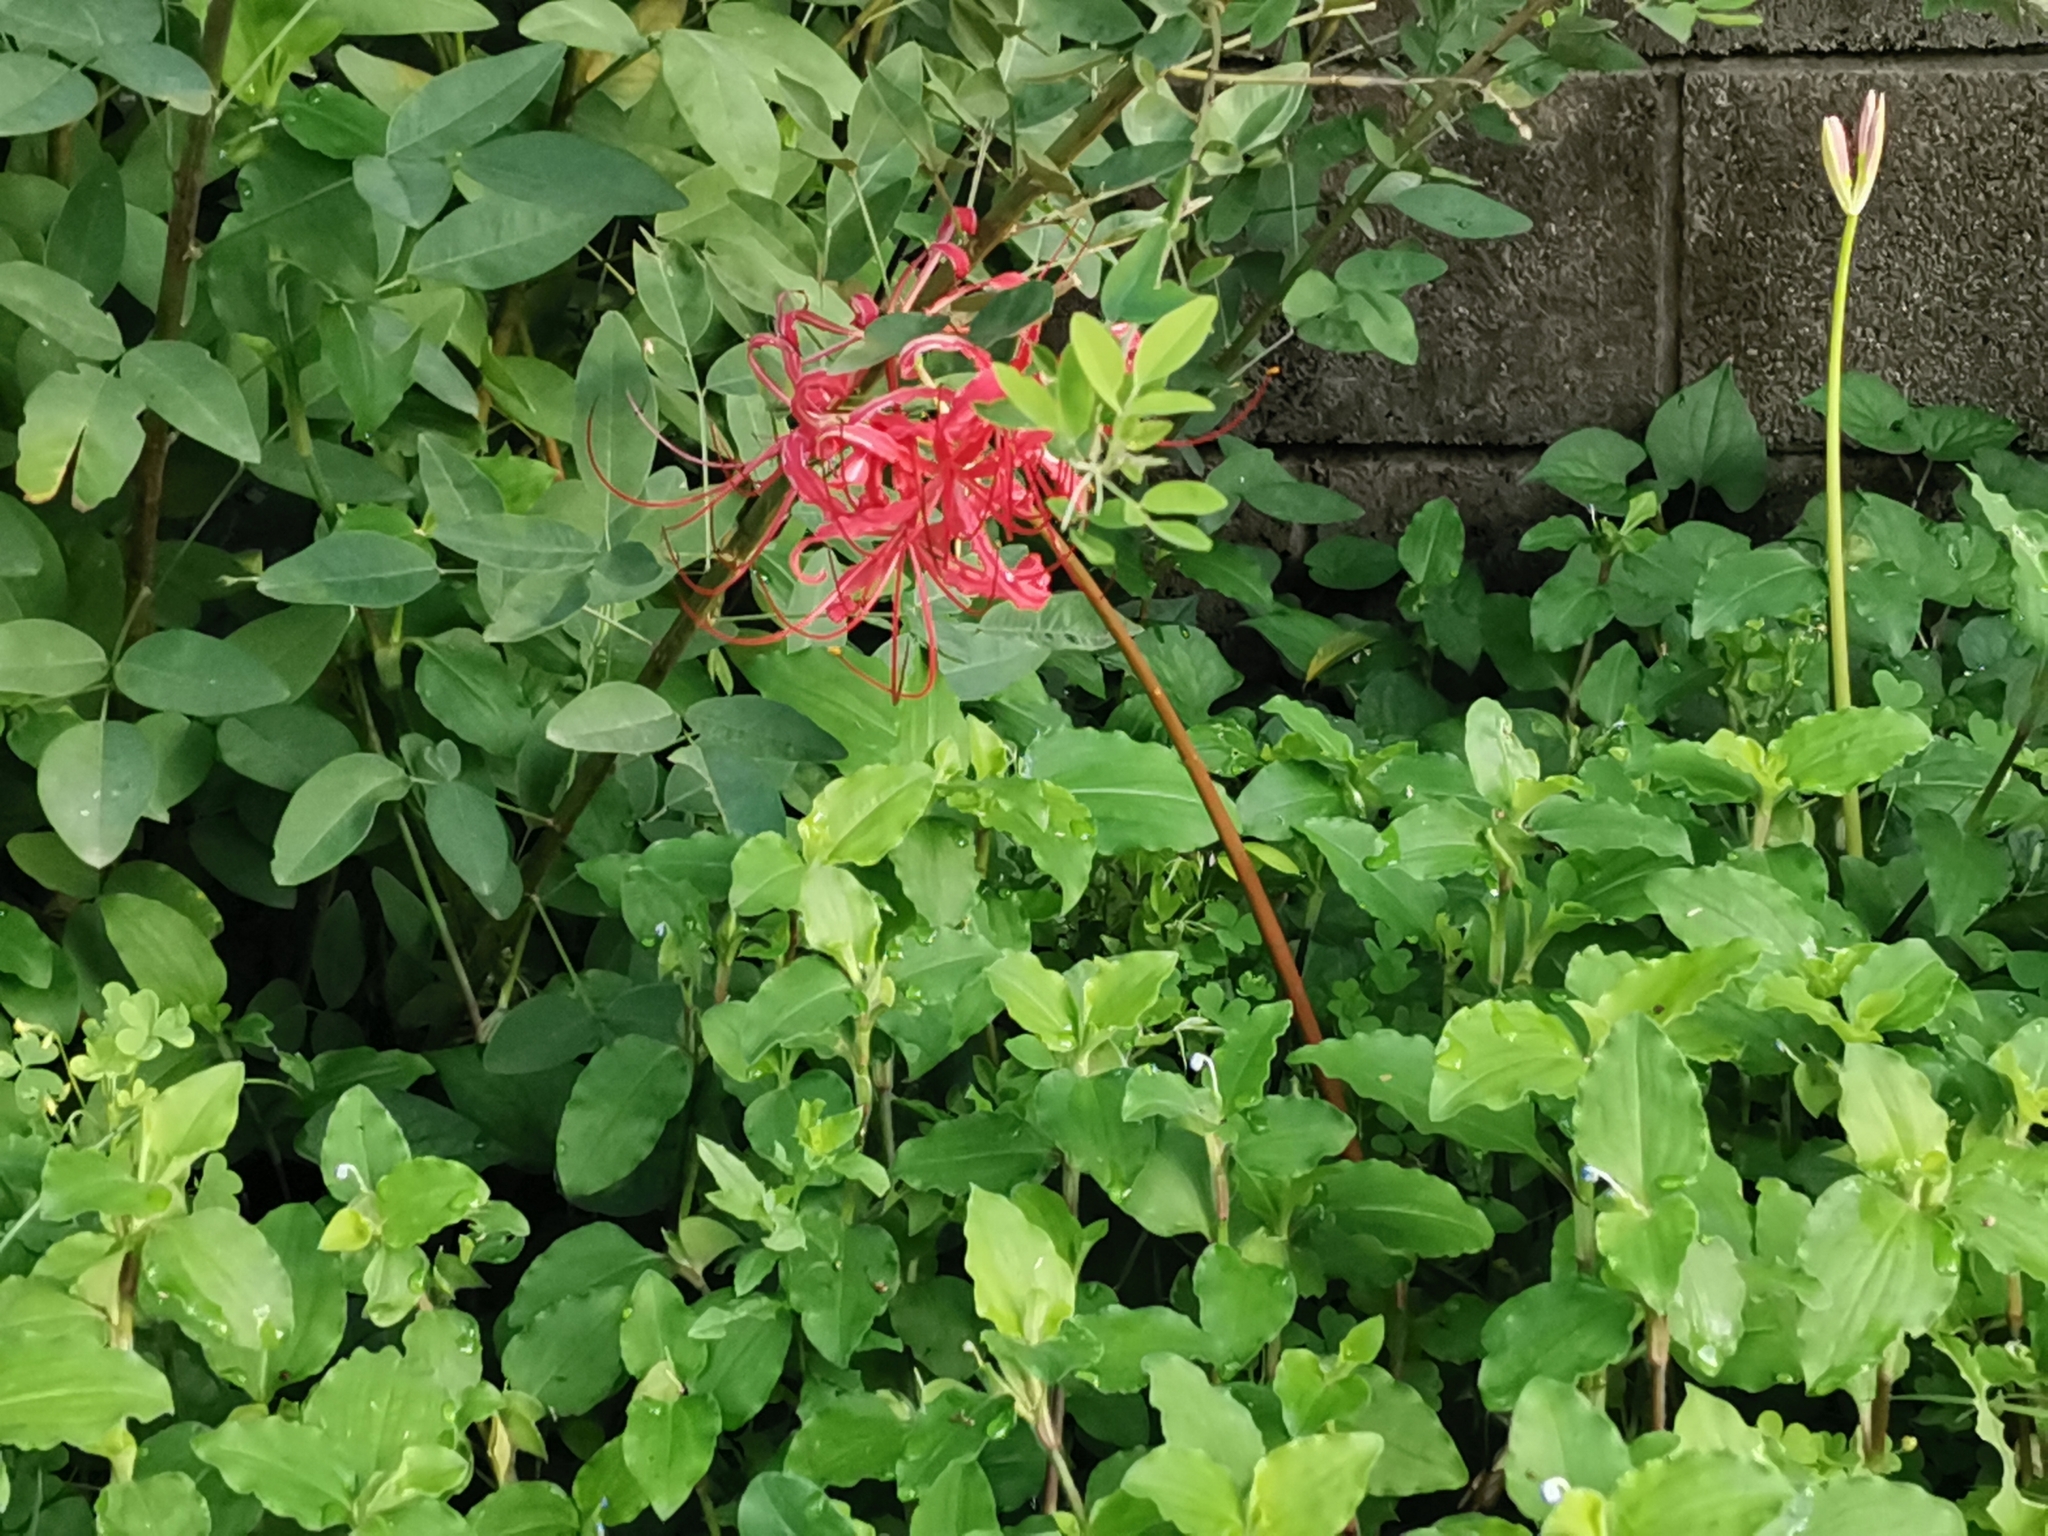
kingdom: Plantae
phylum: Tracheophyta
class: Liliopsida
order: Asparagales
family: Amaryllidaceae
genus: Lycoris
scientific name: Lycoris radiata
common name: Red spider lily
